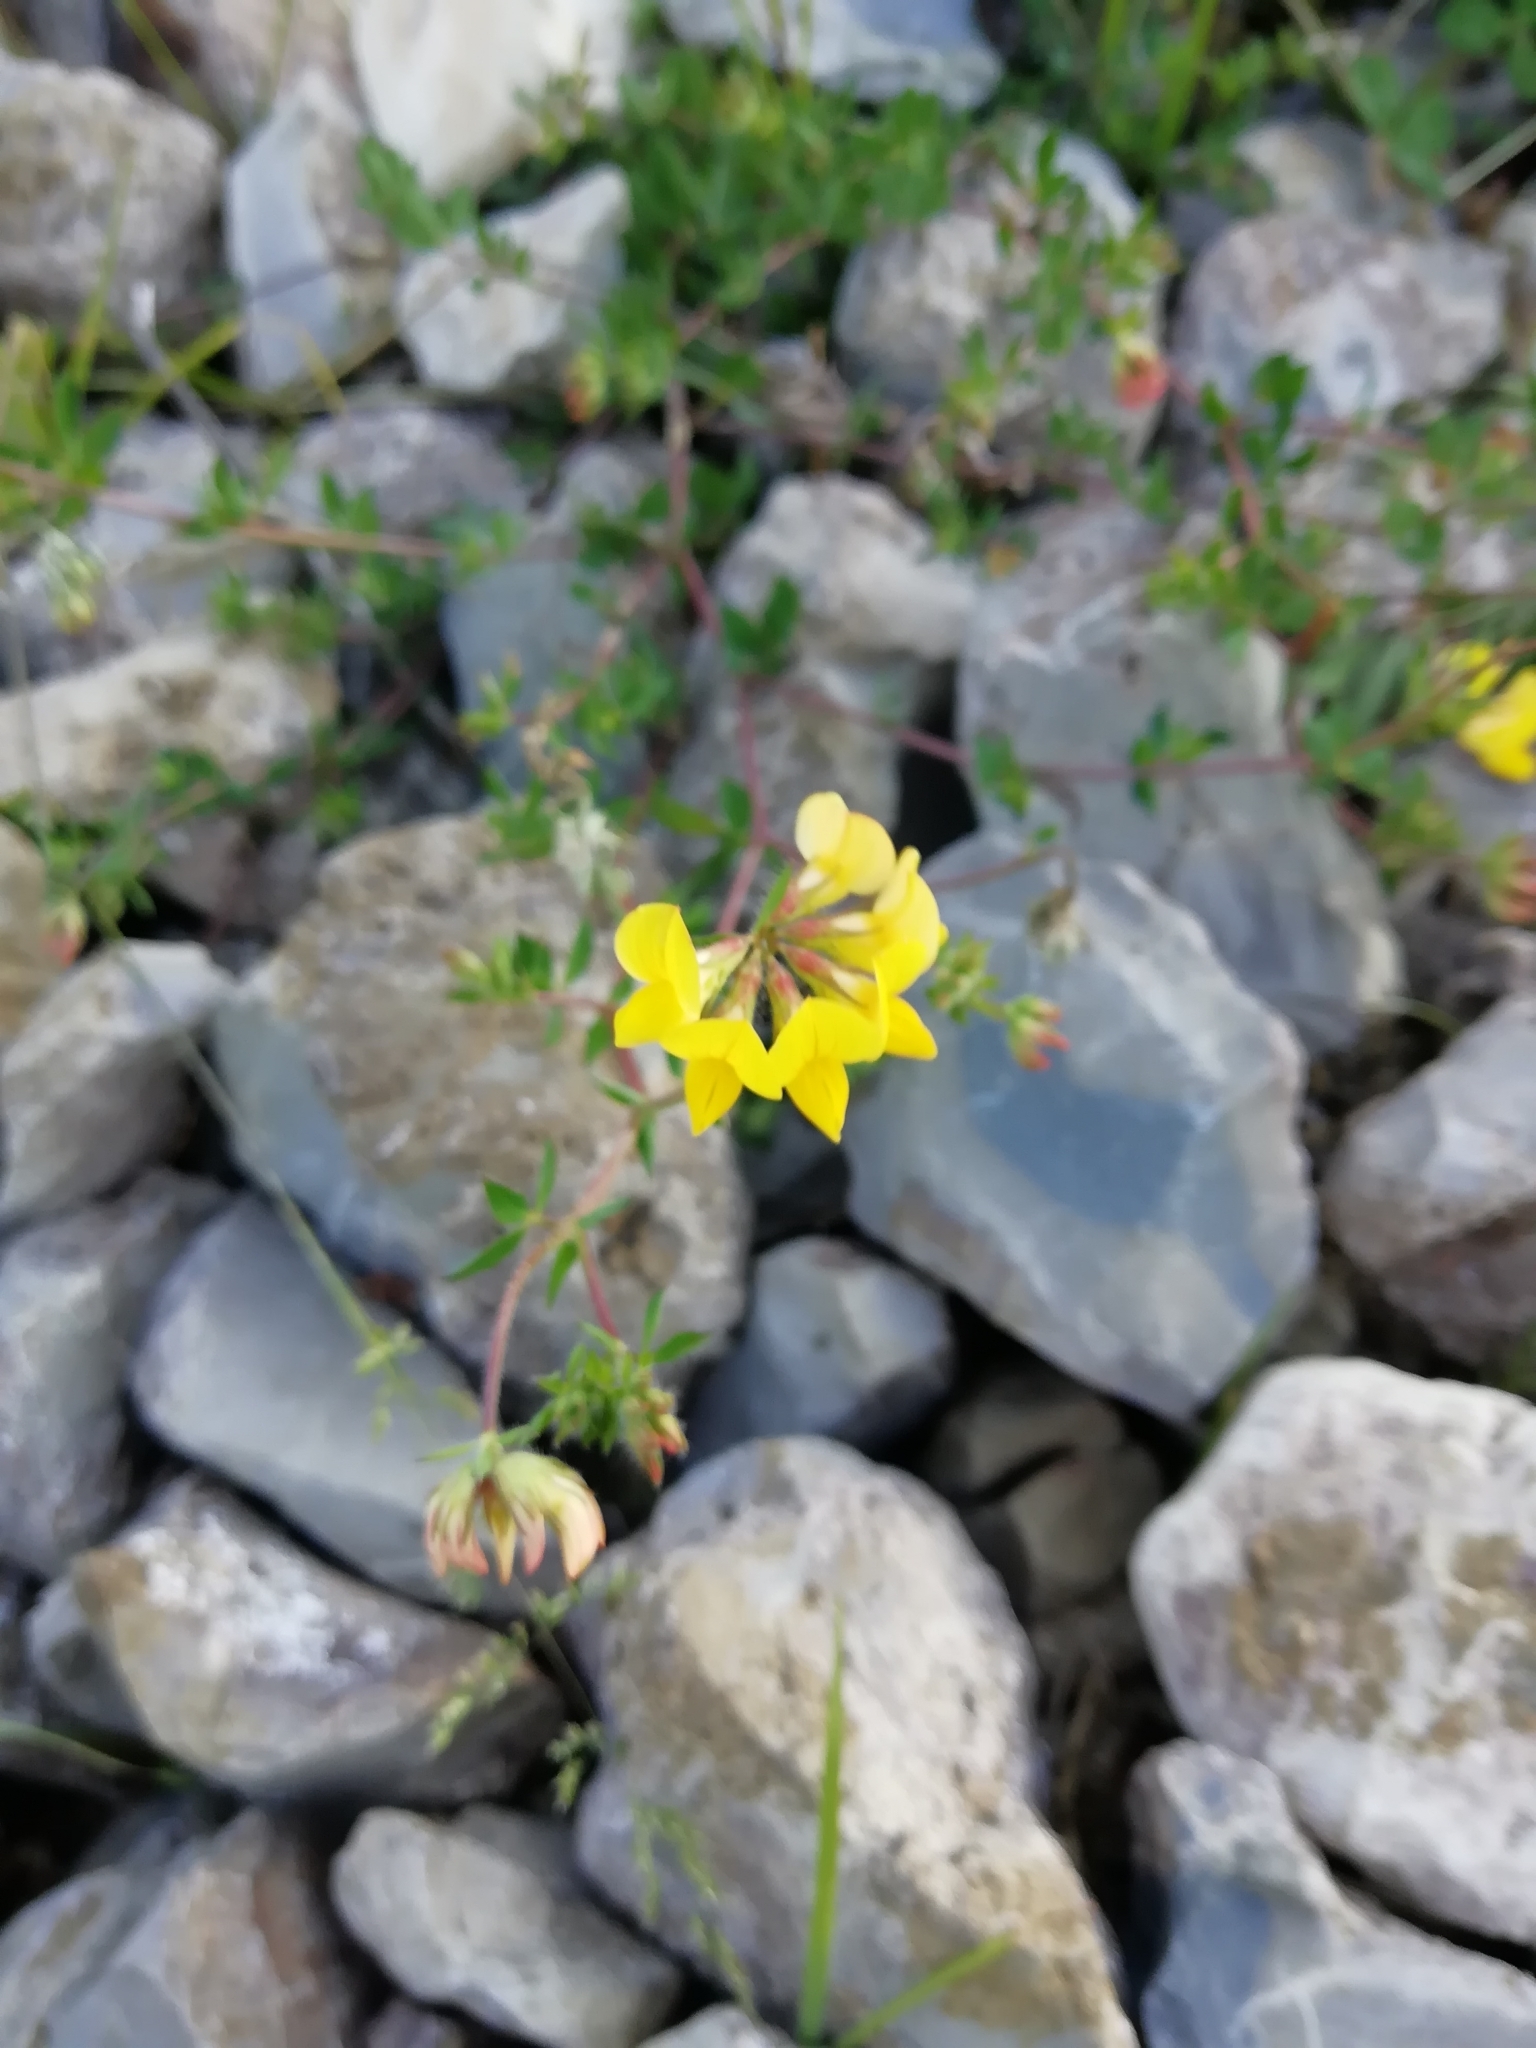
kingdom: Plantae
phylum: Tracheophyta
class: Magnoliopsida
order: Fabales
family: Fabaceae
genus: Lotus
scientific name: Lotus corniculatus
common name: Common bird's-foot-trefoil
